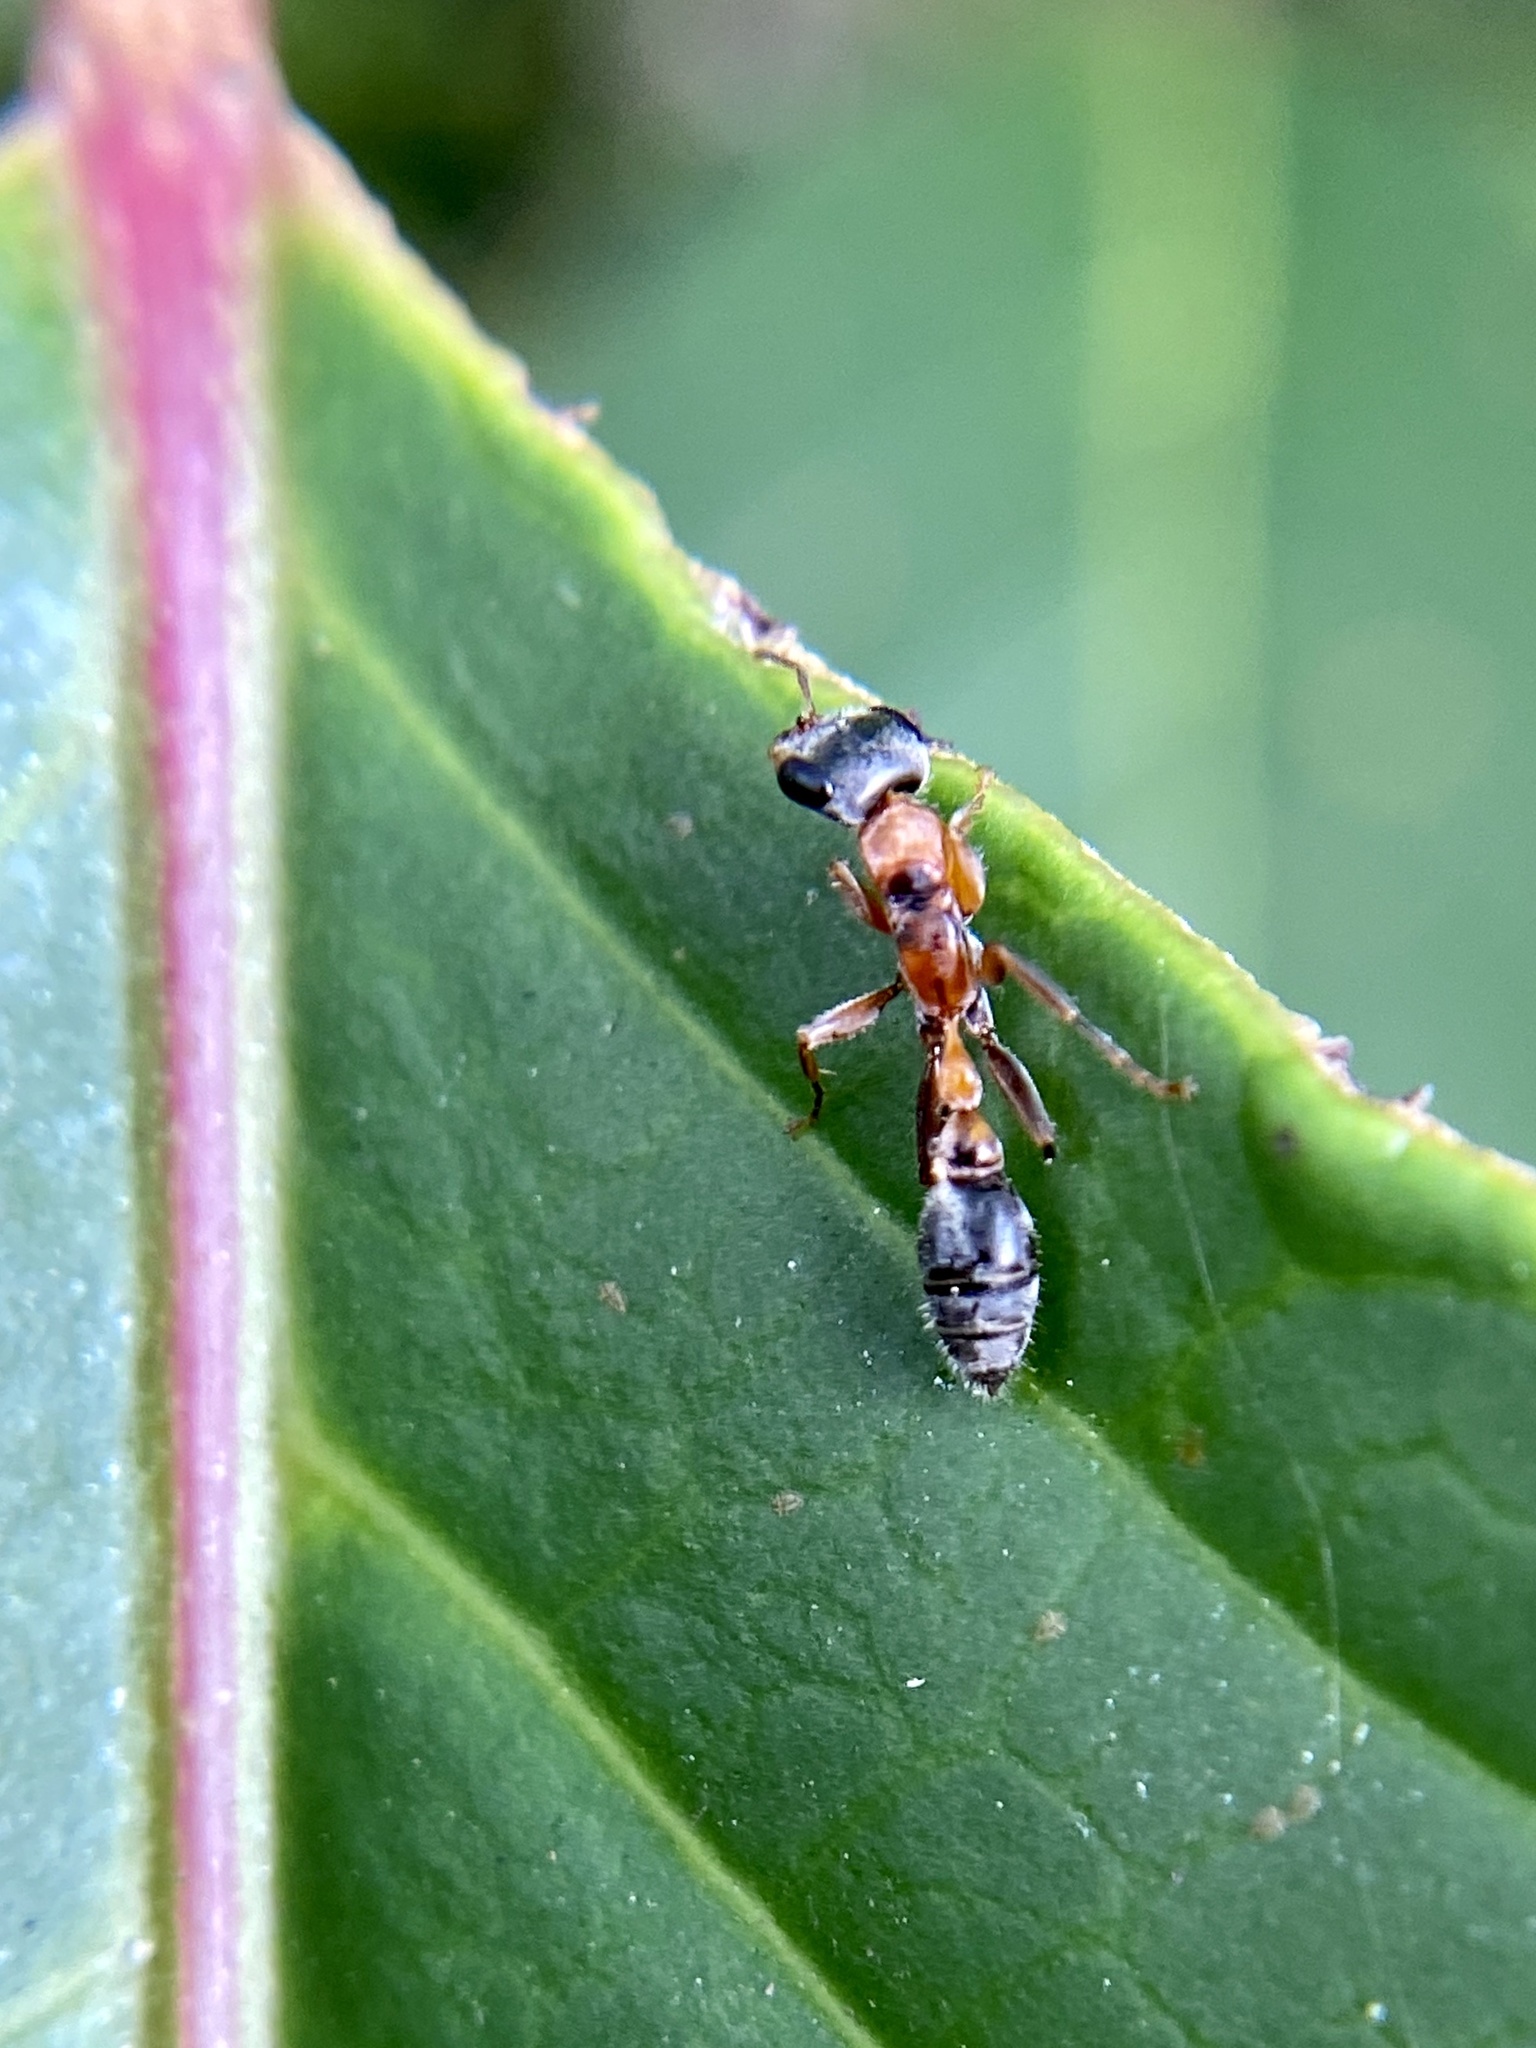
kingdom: Animalia
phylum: Arthropoda
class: Insecta
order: Hymenoptera
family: Formicidae
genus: Pseudomyrmex
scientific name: Pseudomyrmex gracilis
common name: Graceful twig ant
